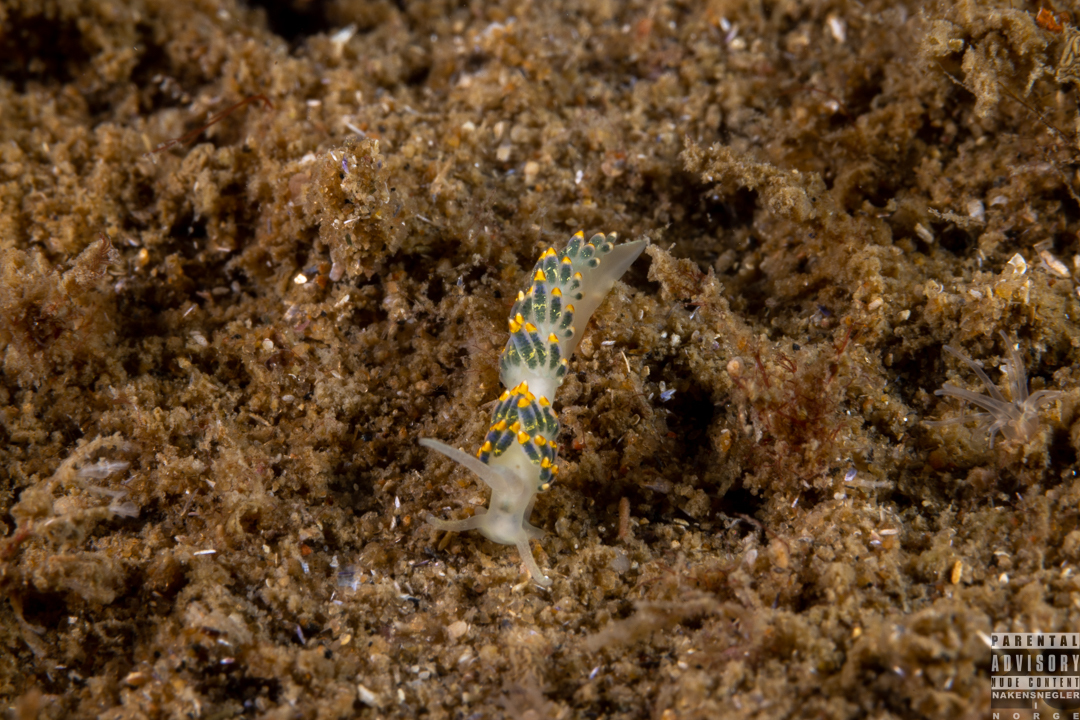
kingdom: Animalia
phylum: Mollusca
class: Gastropoda
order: Nudibranchia
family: Trinchesiidae
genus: Trinchesia
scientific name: Trinchesia cuanensis
